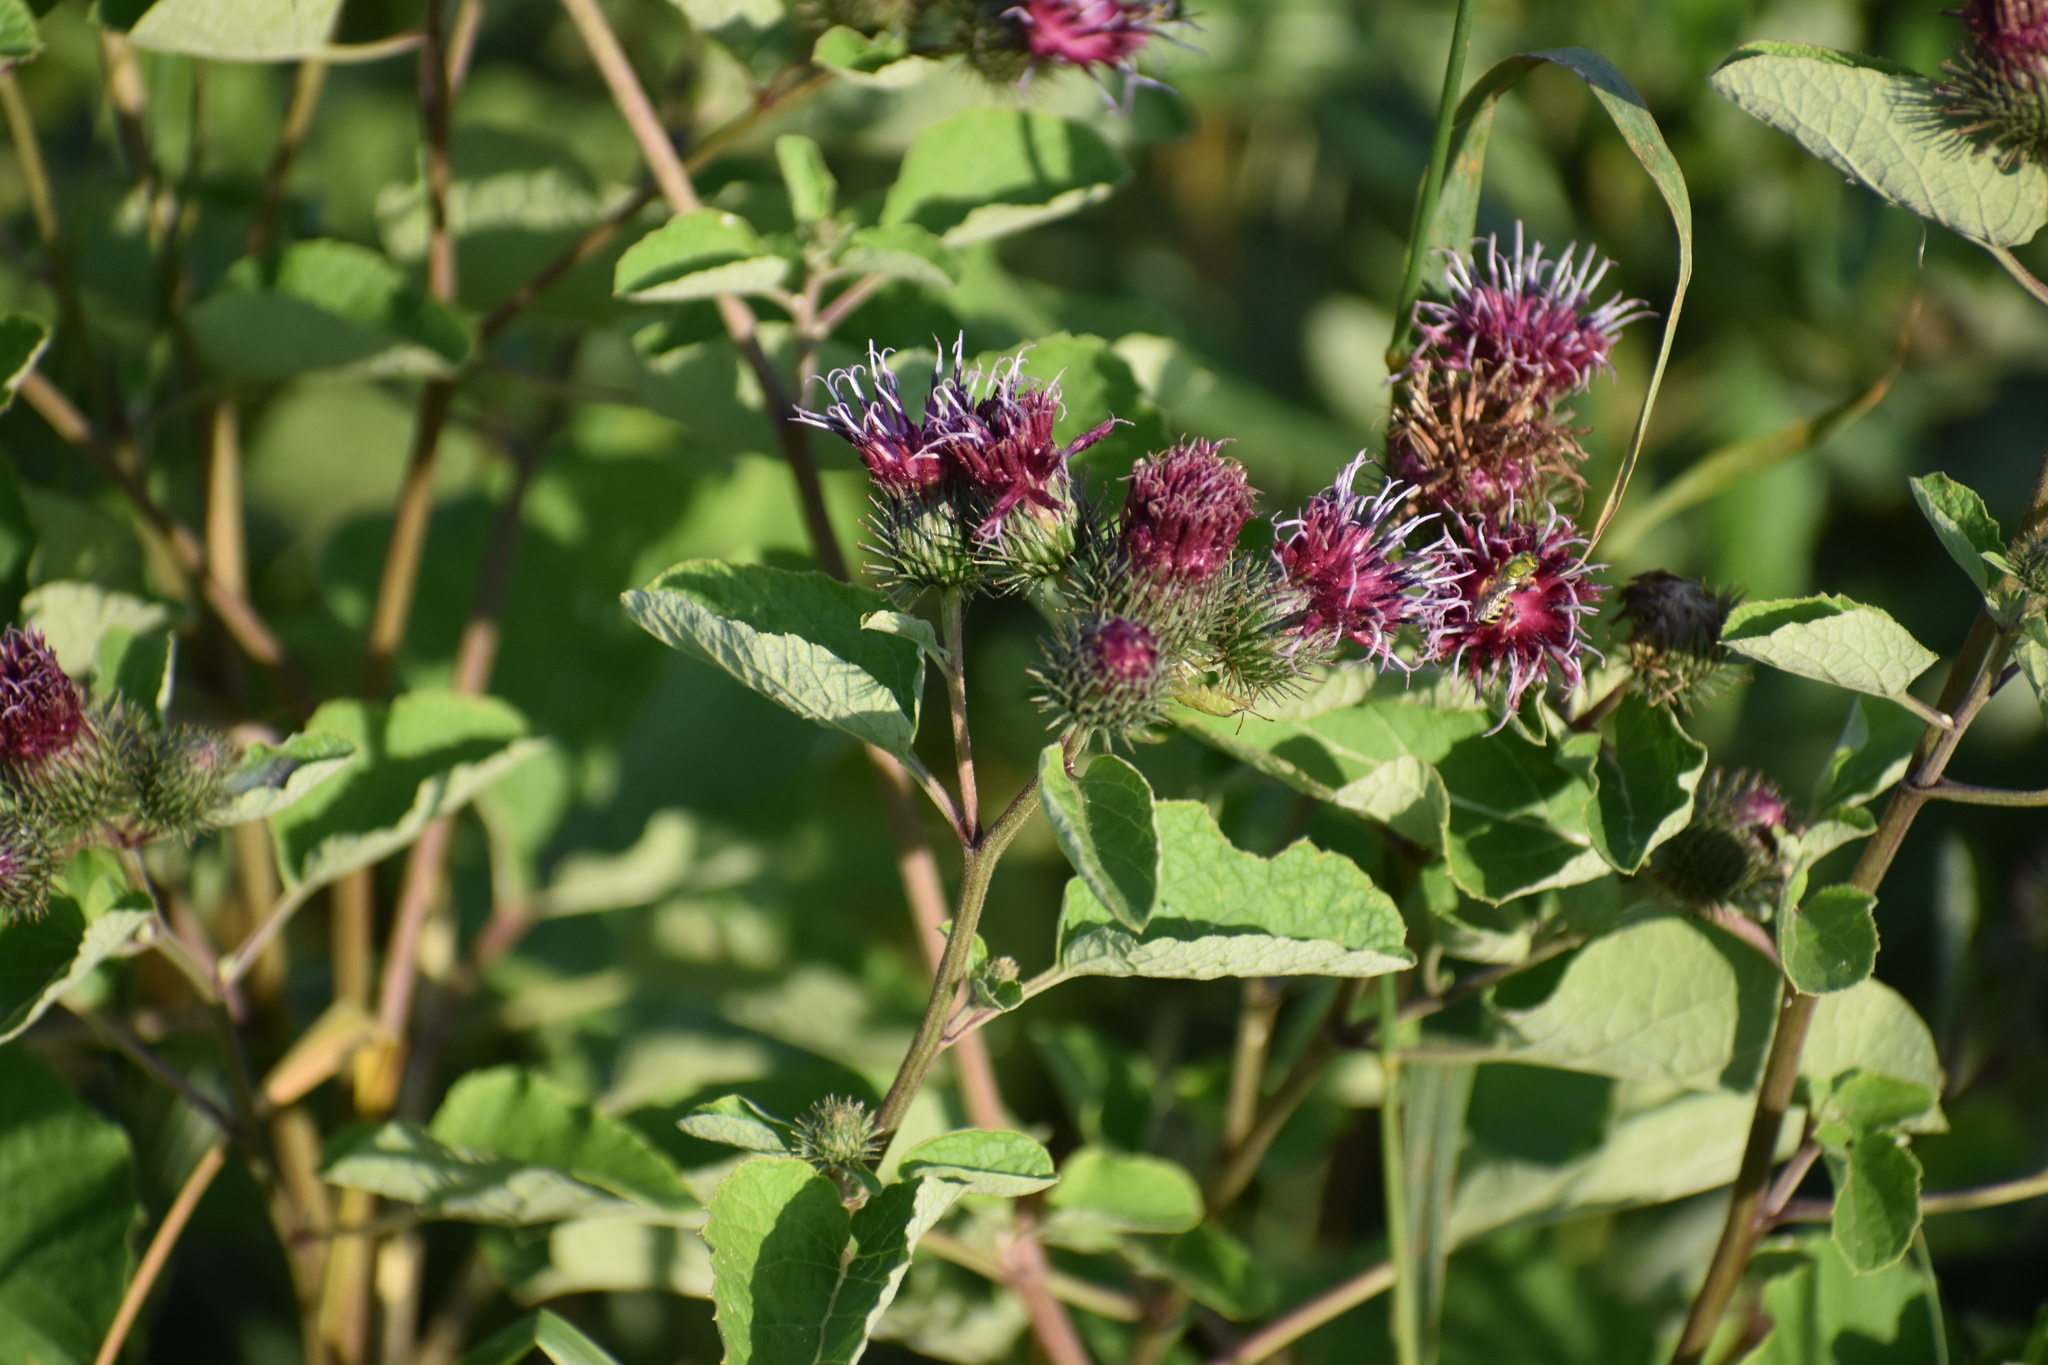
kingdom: Plantae
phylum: Tracheophyta
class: Magnoliopsida
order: Asterales
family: Asteraceae
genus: Arctium
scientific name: Arctium minus
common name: Lesser burdock
